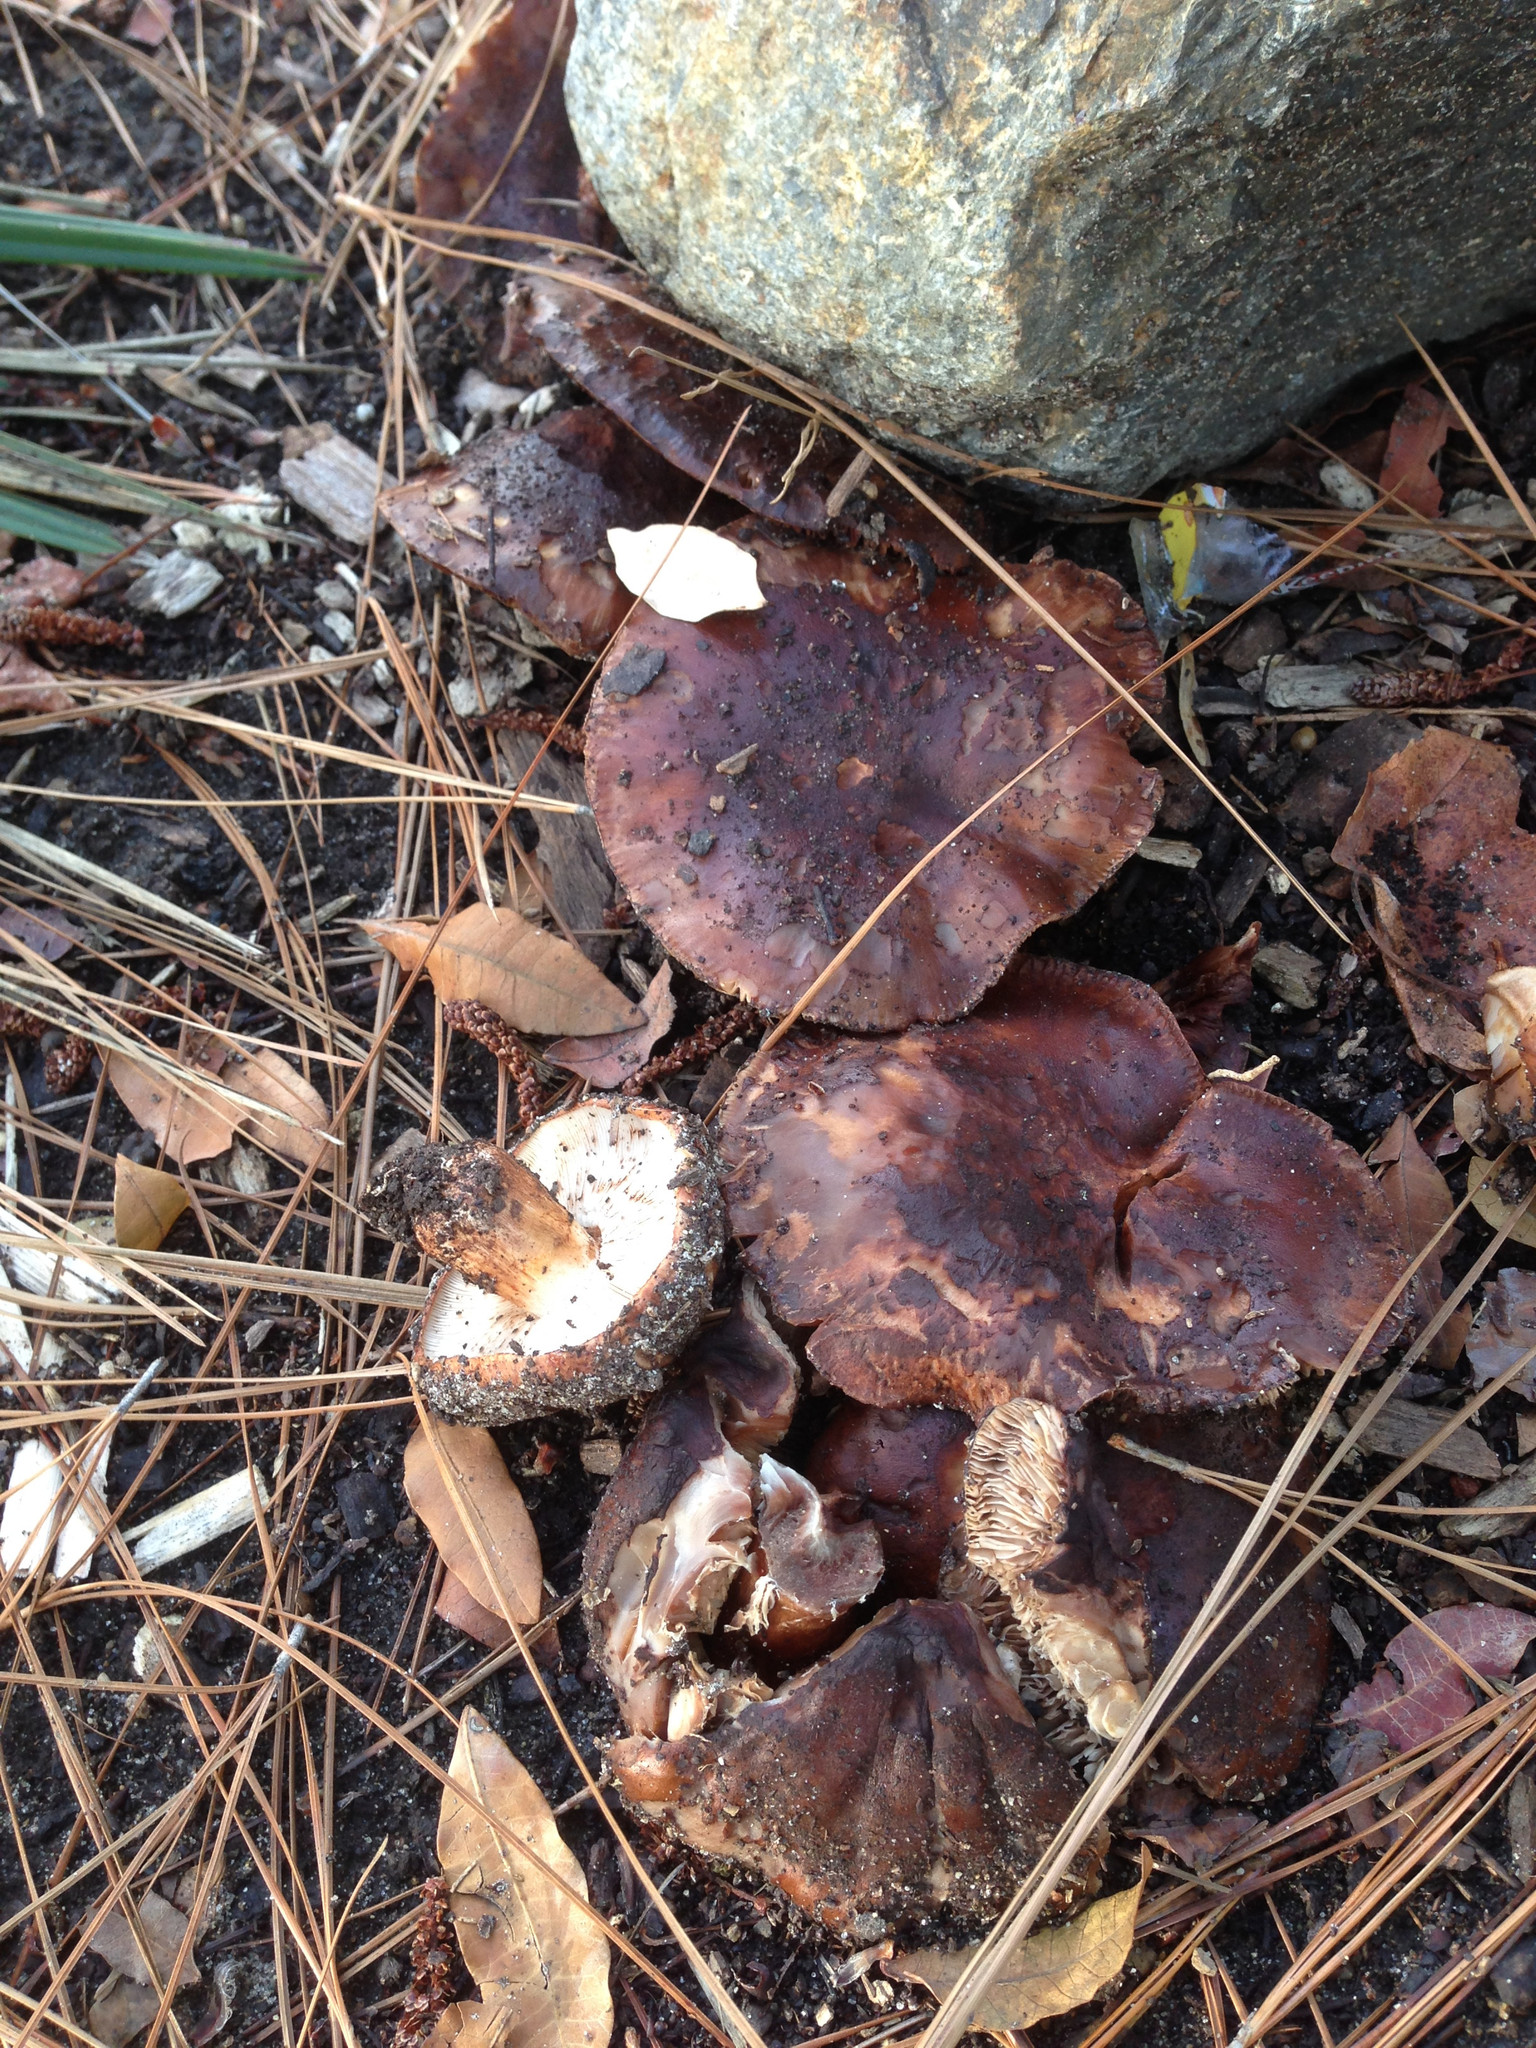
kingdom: Fungi
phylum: Basidiomycota
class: Agaricomycetes
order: Agaricales
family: Tricholomataceae
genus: Tricholoma
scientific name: Tricholoma fracticum
